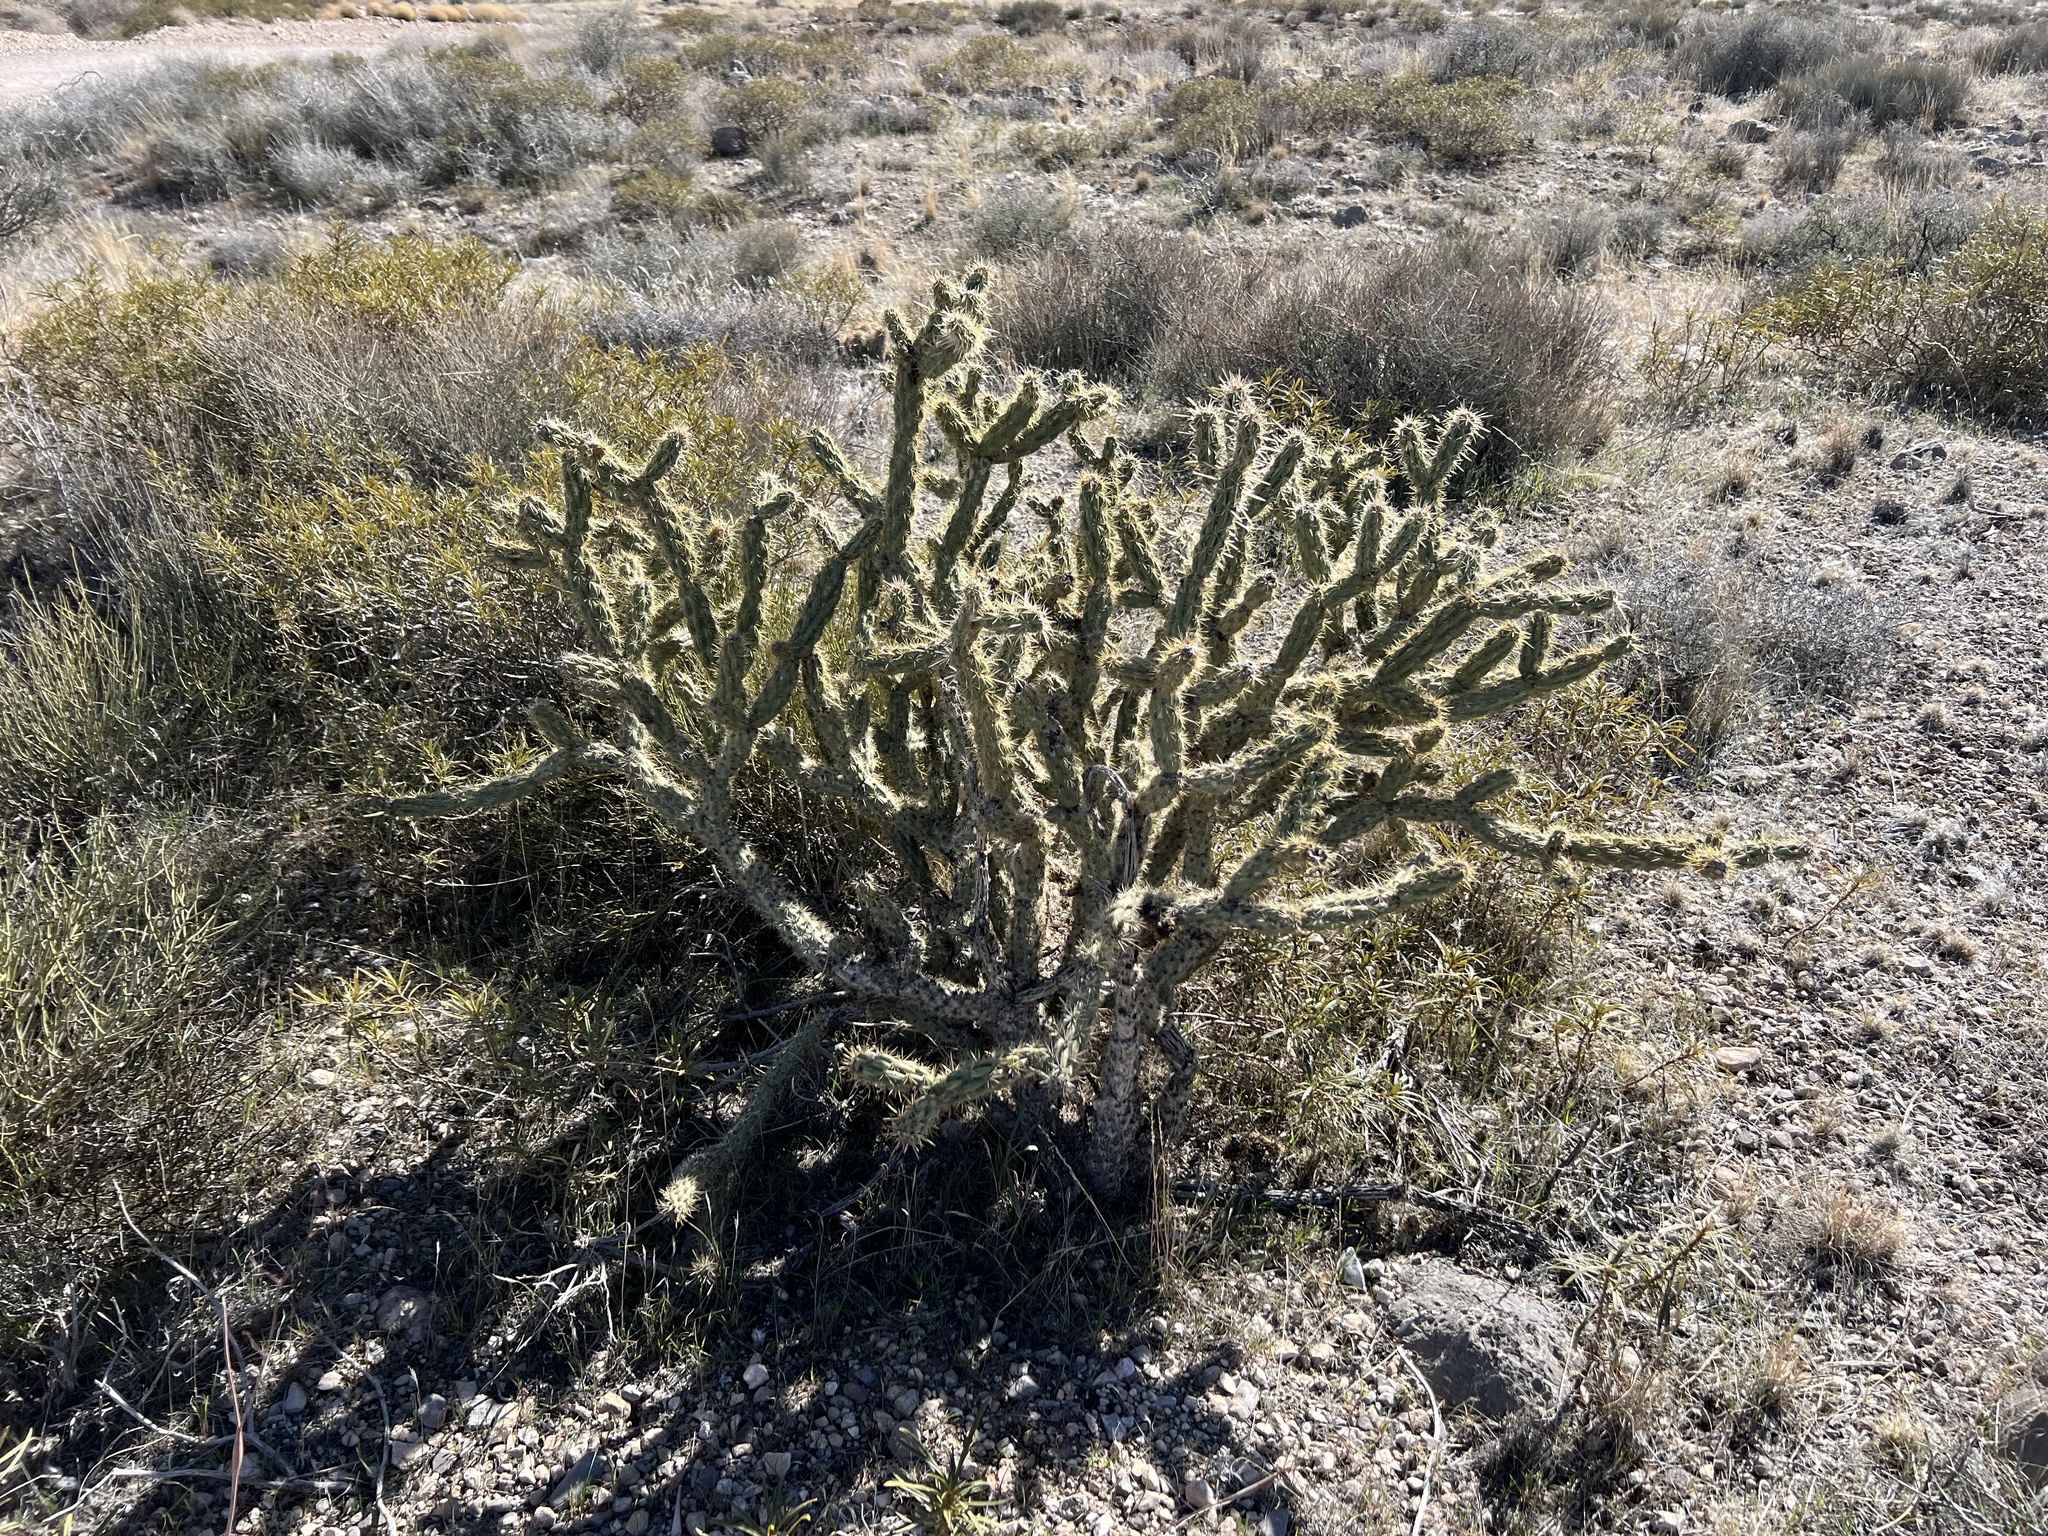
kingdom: Plantae
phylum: Tracheophyta
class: Magnoliopsida
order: Caryophyllales
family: Cactaceae
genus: Cylindropuntia
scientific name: Cylindropuntia acanthocarpa
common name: Buckhorn cholla
